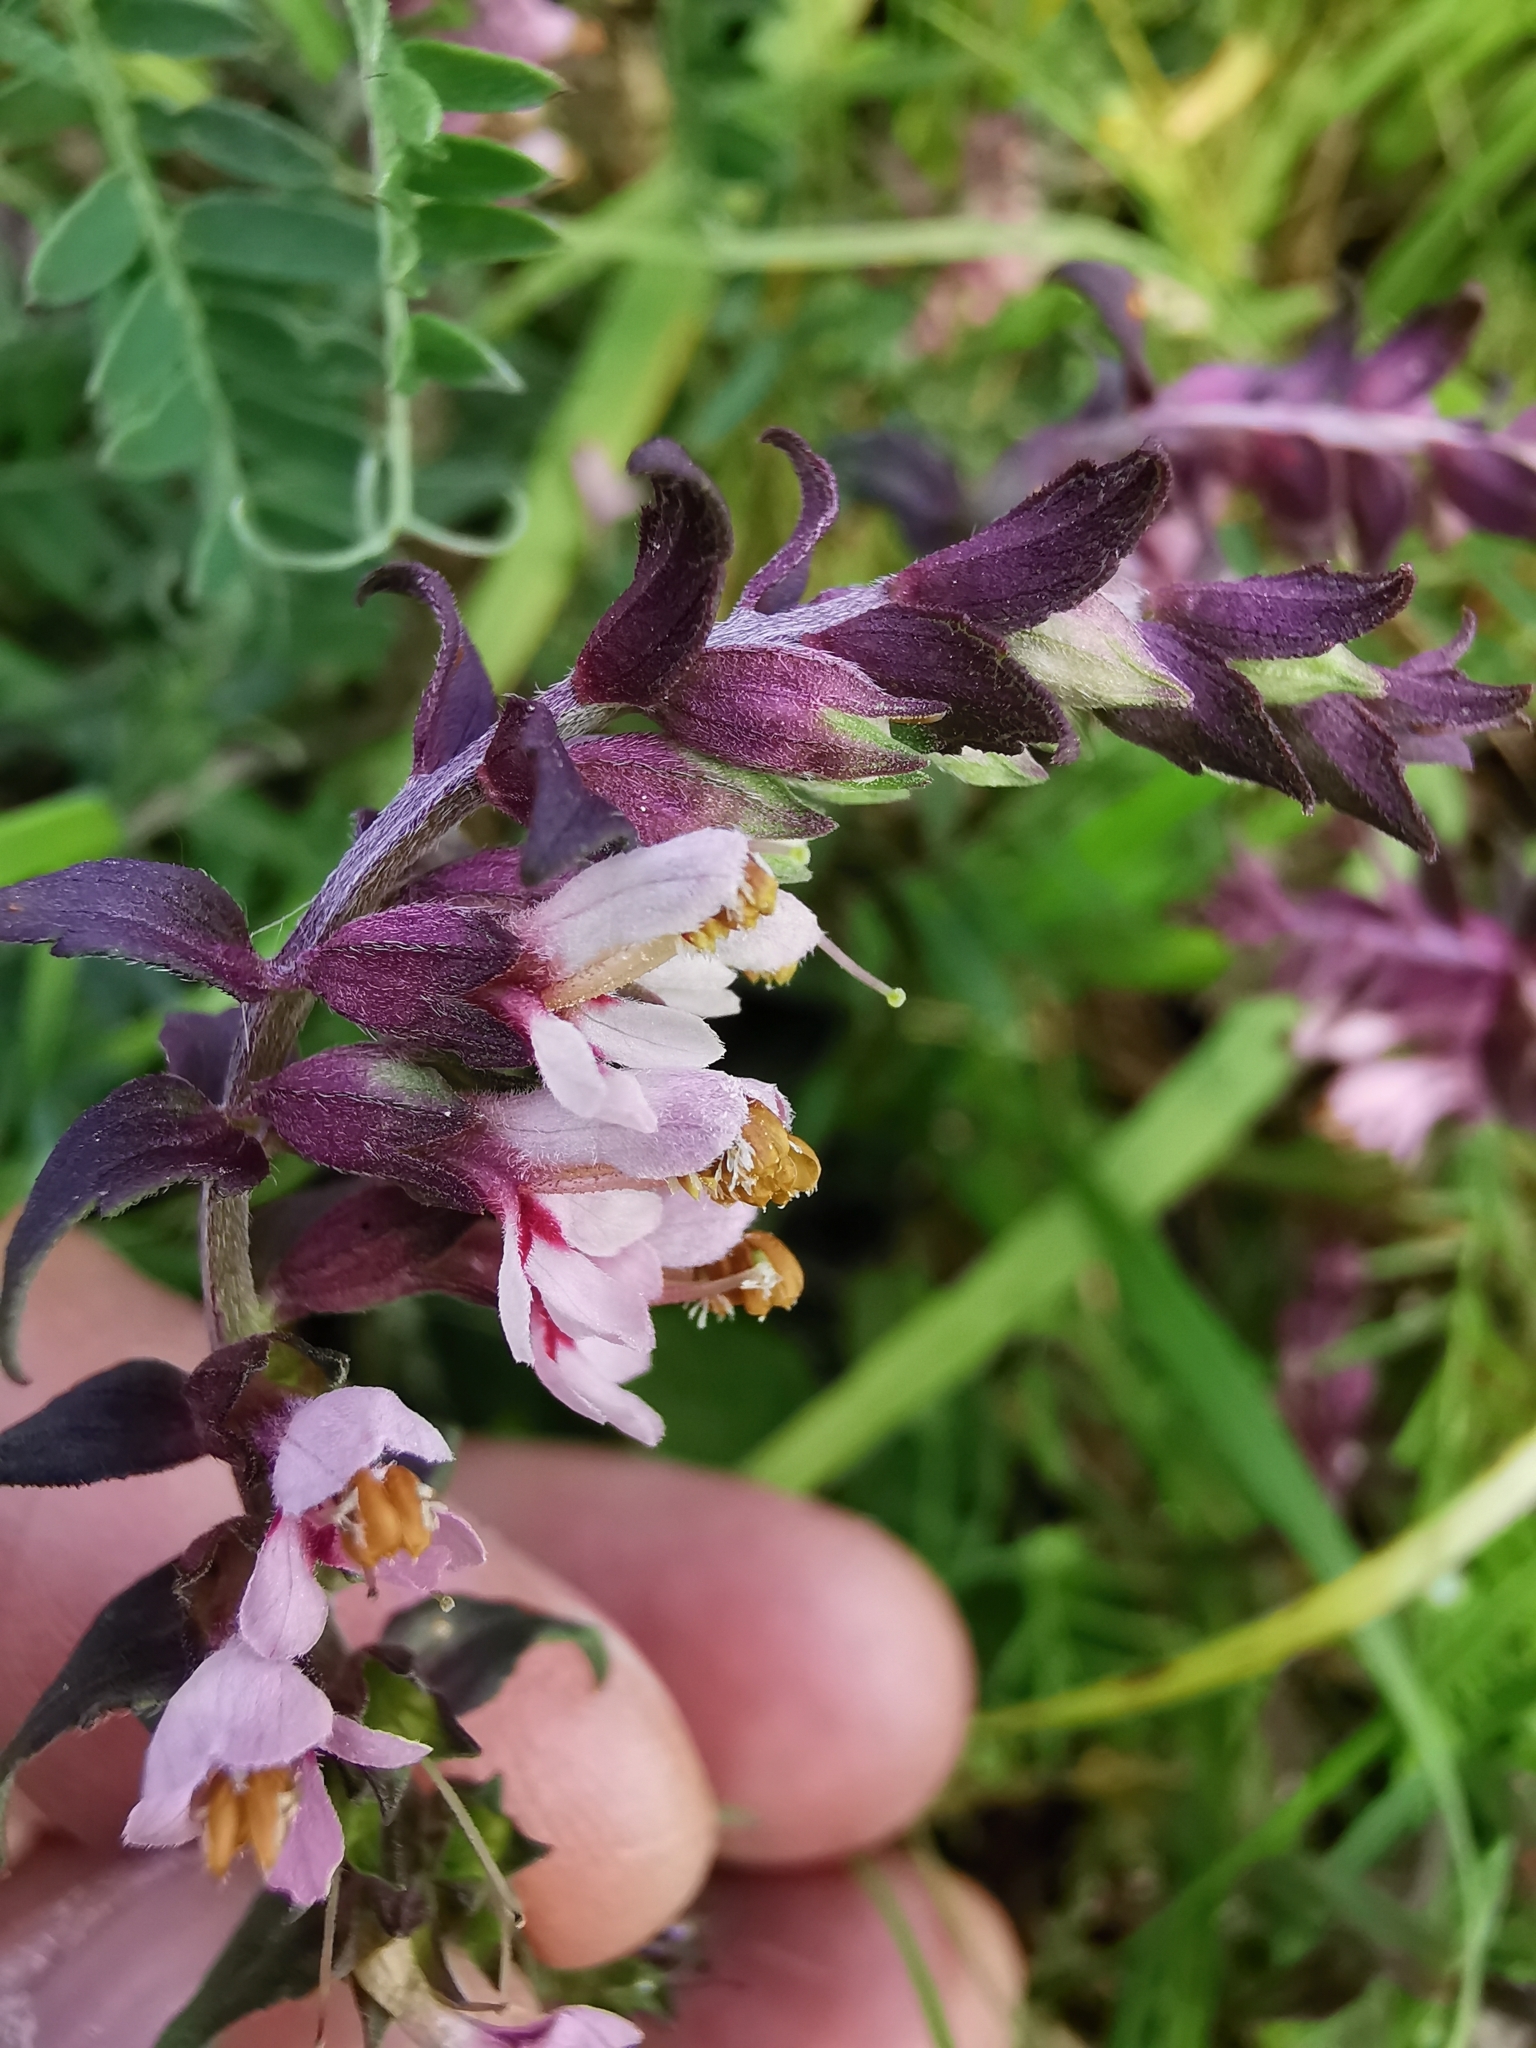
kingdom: Plantae
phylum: Tracheophyta
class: Magnoliopsida
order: Lamiales
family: Orobanchaceae
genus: Odontites
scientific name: Odontites vulgaris
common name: Broomrape
